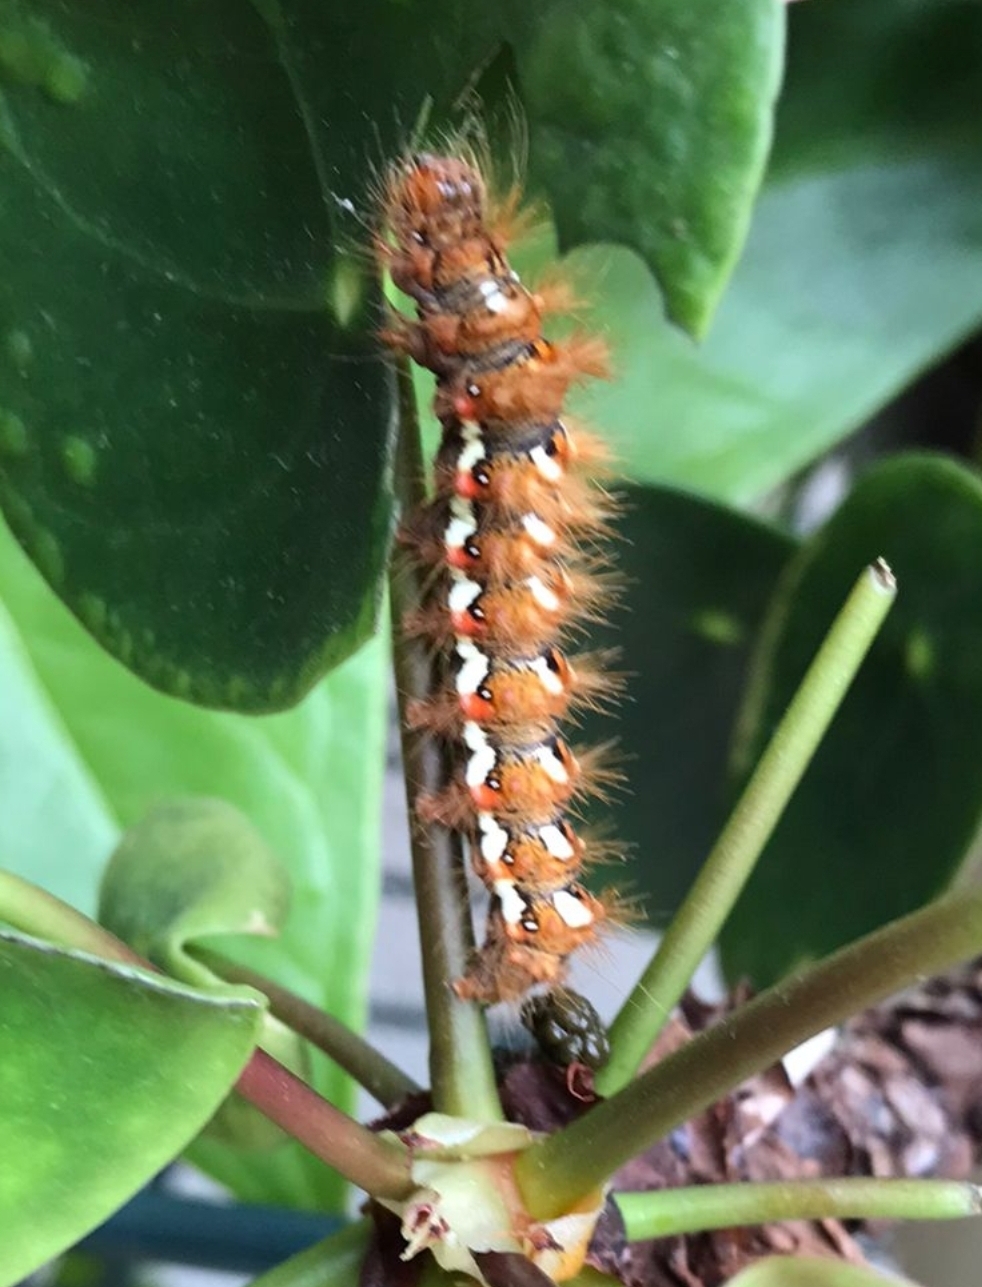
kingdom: Animalia
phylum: Arthropoda
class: Insecta
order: Lepidoptera
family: Noctuidae
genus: Acronicta
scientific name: Acronicta rumicis
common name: Knot grass
